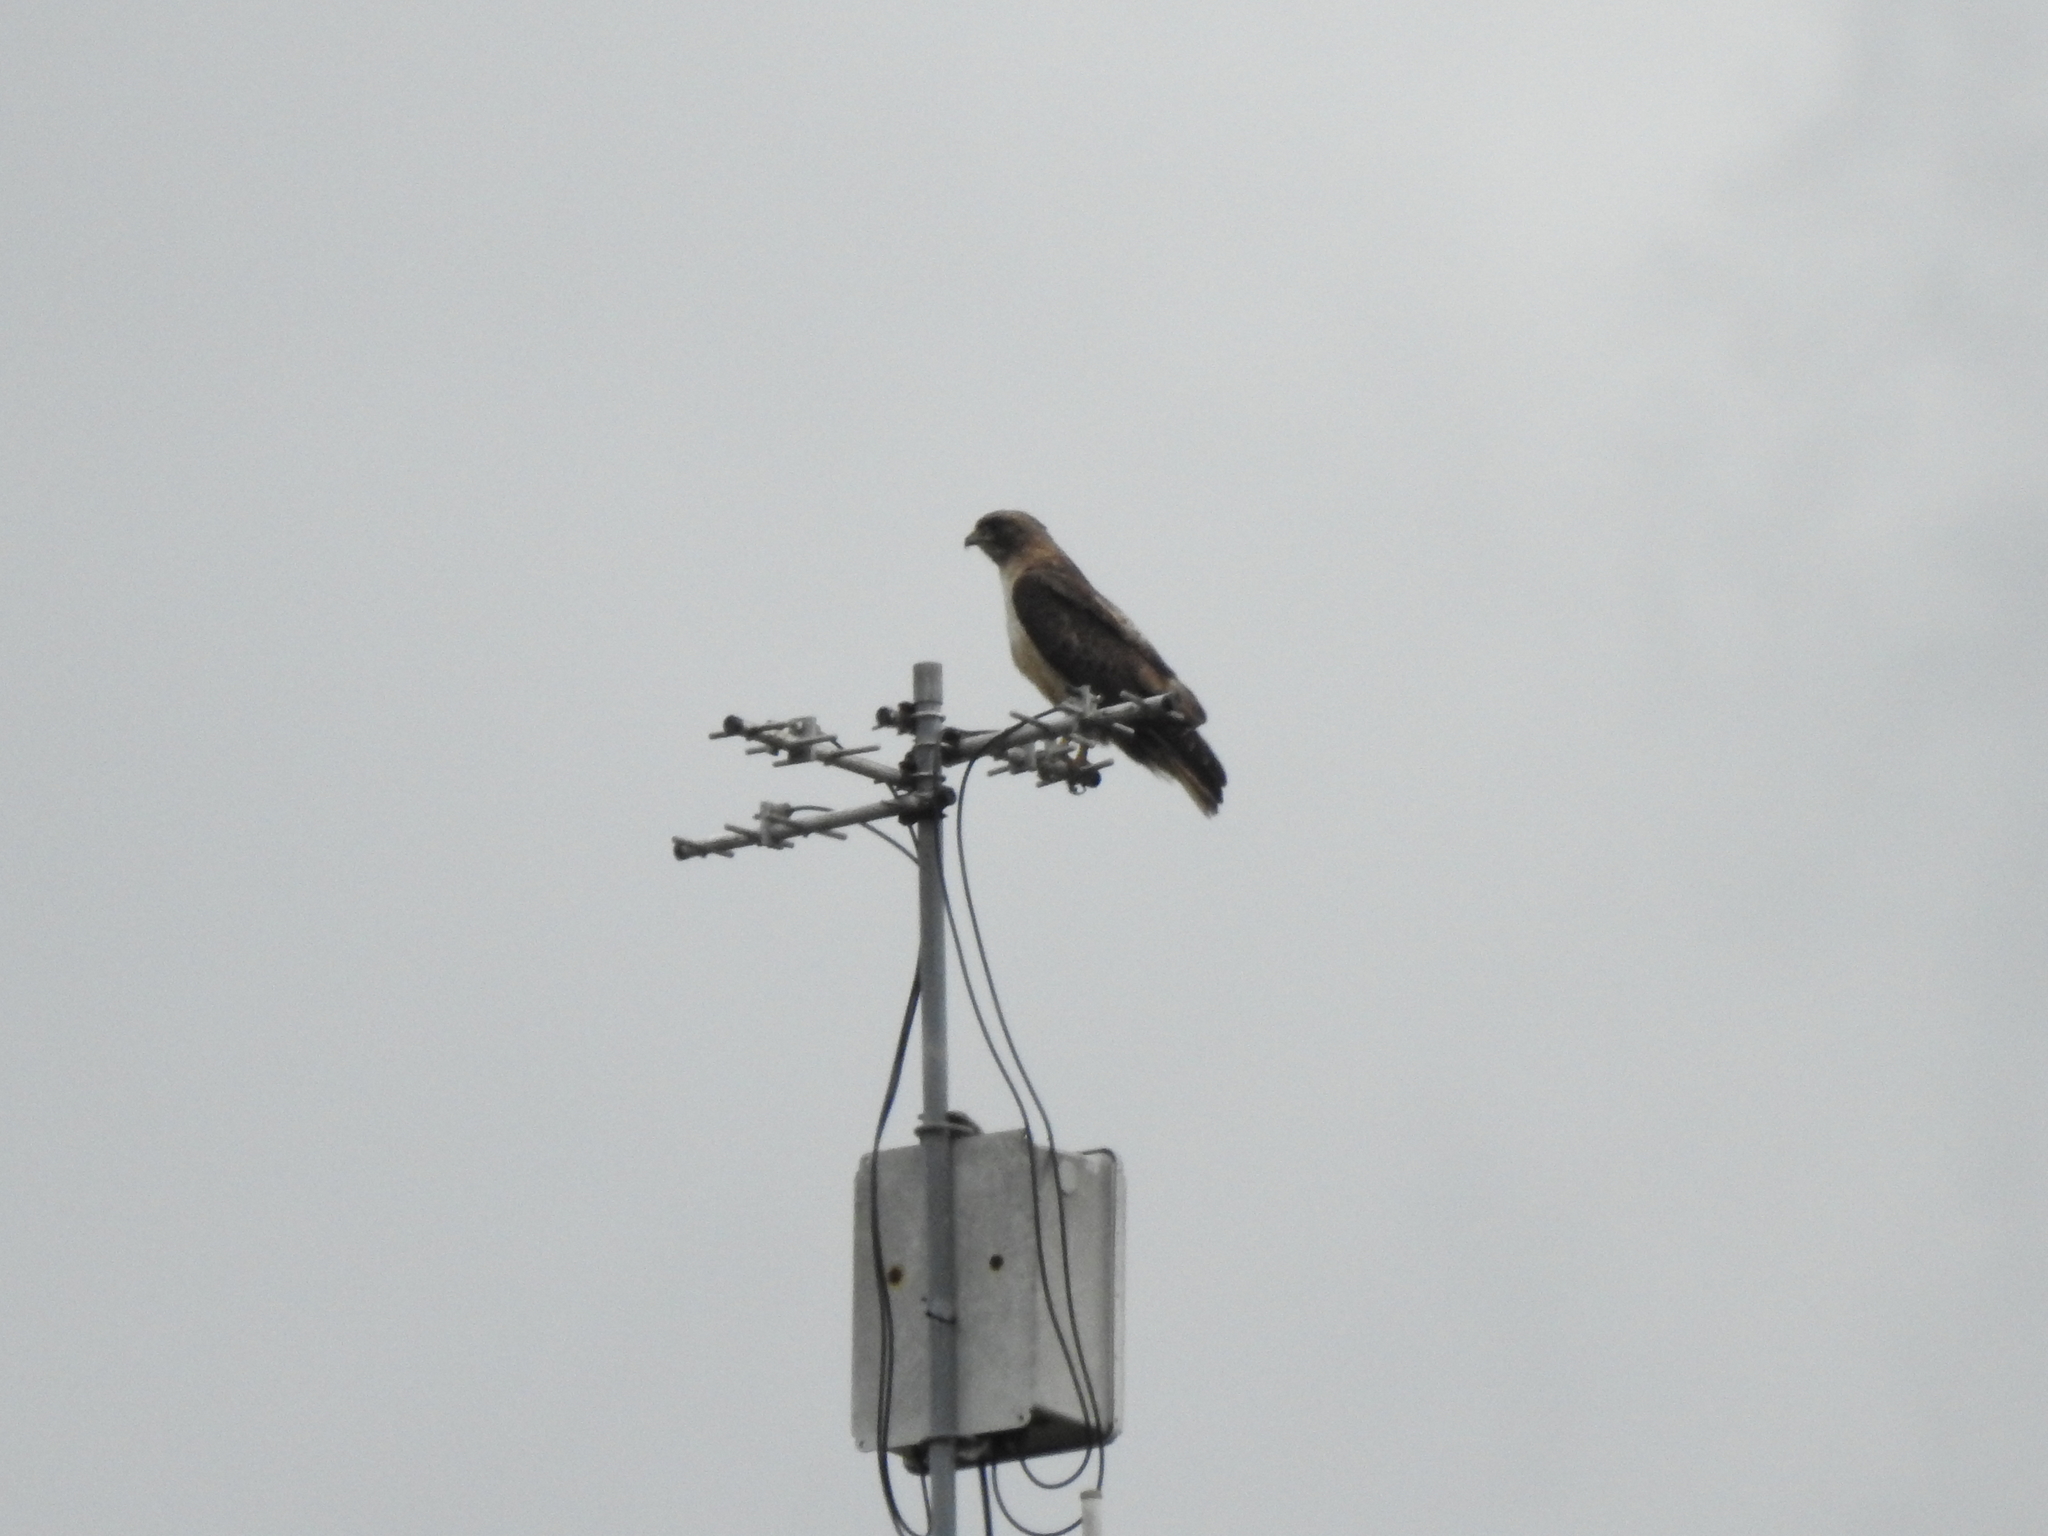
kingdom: Animalia
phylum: Chordata
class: Aves
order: Accipitriformes
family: Accipitridae
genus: Buteo
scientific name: Buteo jamaicensis
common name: Red-tailed hawk
